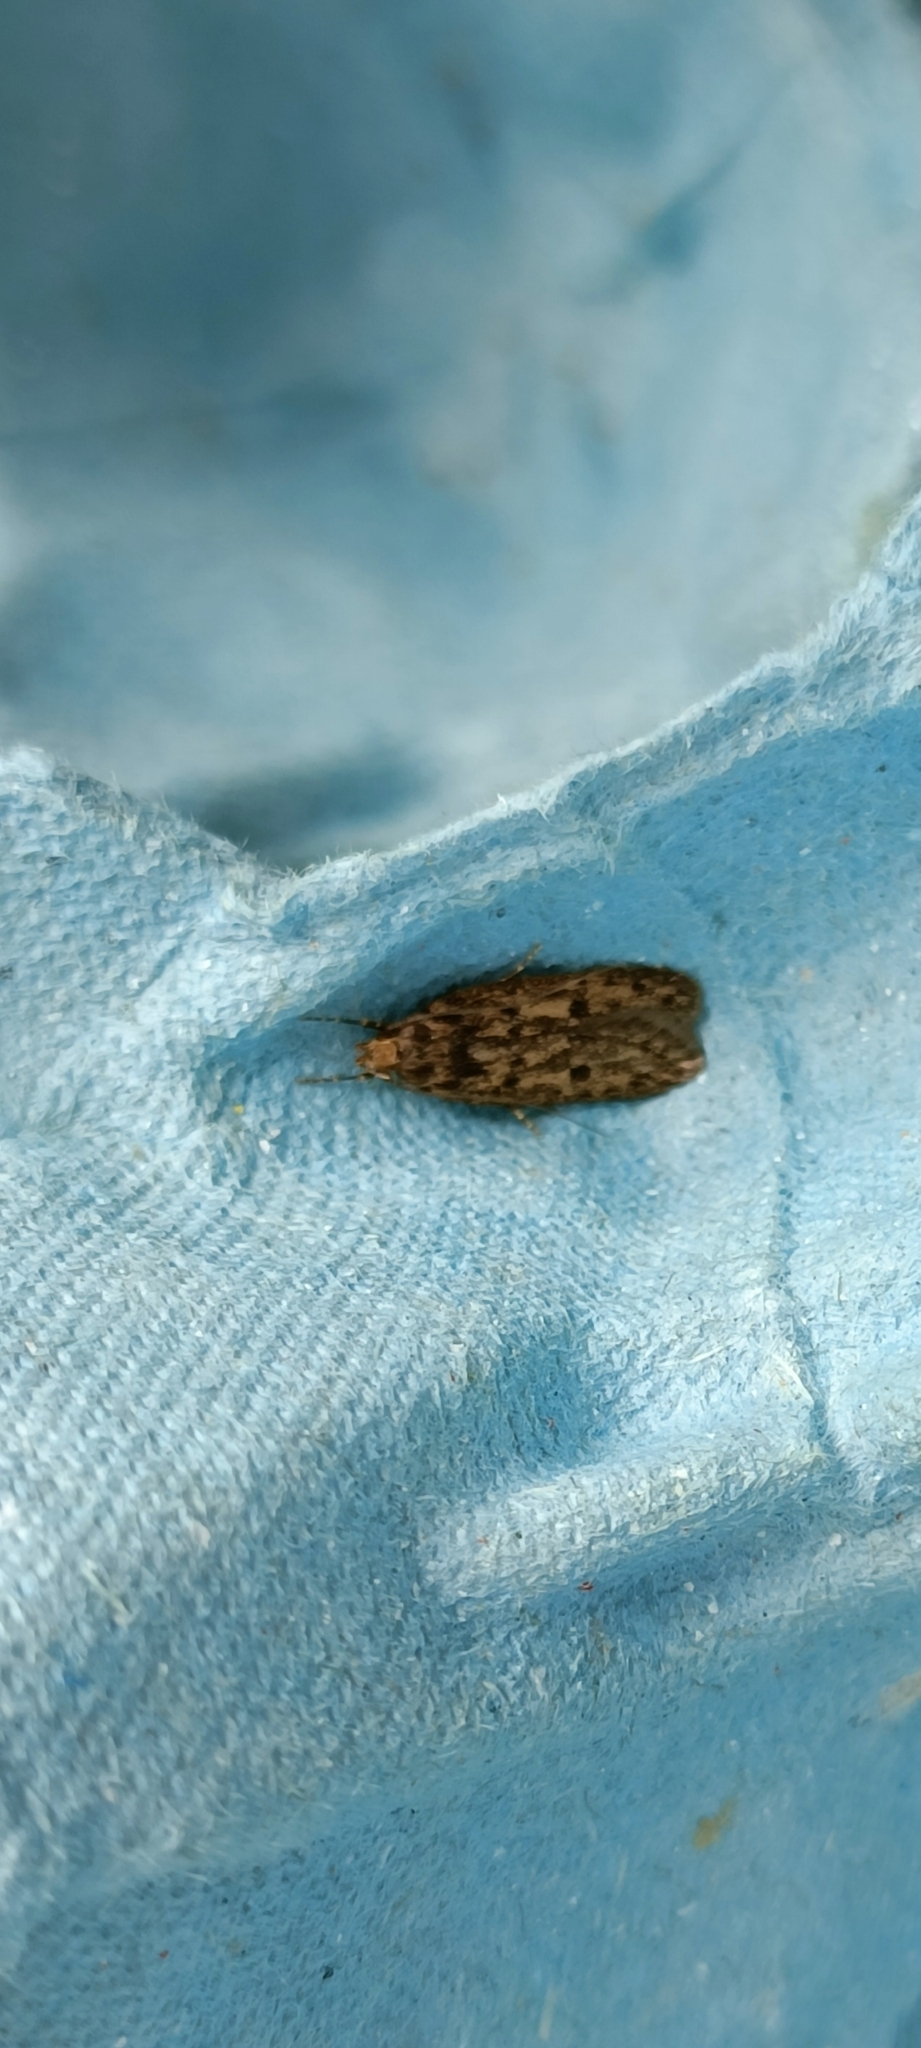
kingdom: Animalia
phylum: Arthropoda
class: Insecta
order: Lepidoptera
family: Oecophoridae
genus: Hofmannophila
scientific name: Hofmannophila pseudospretella
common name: Brown house moth
